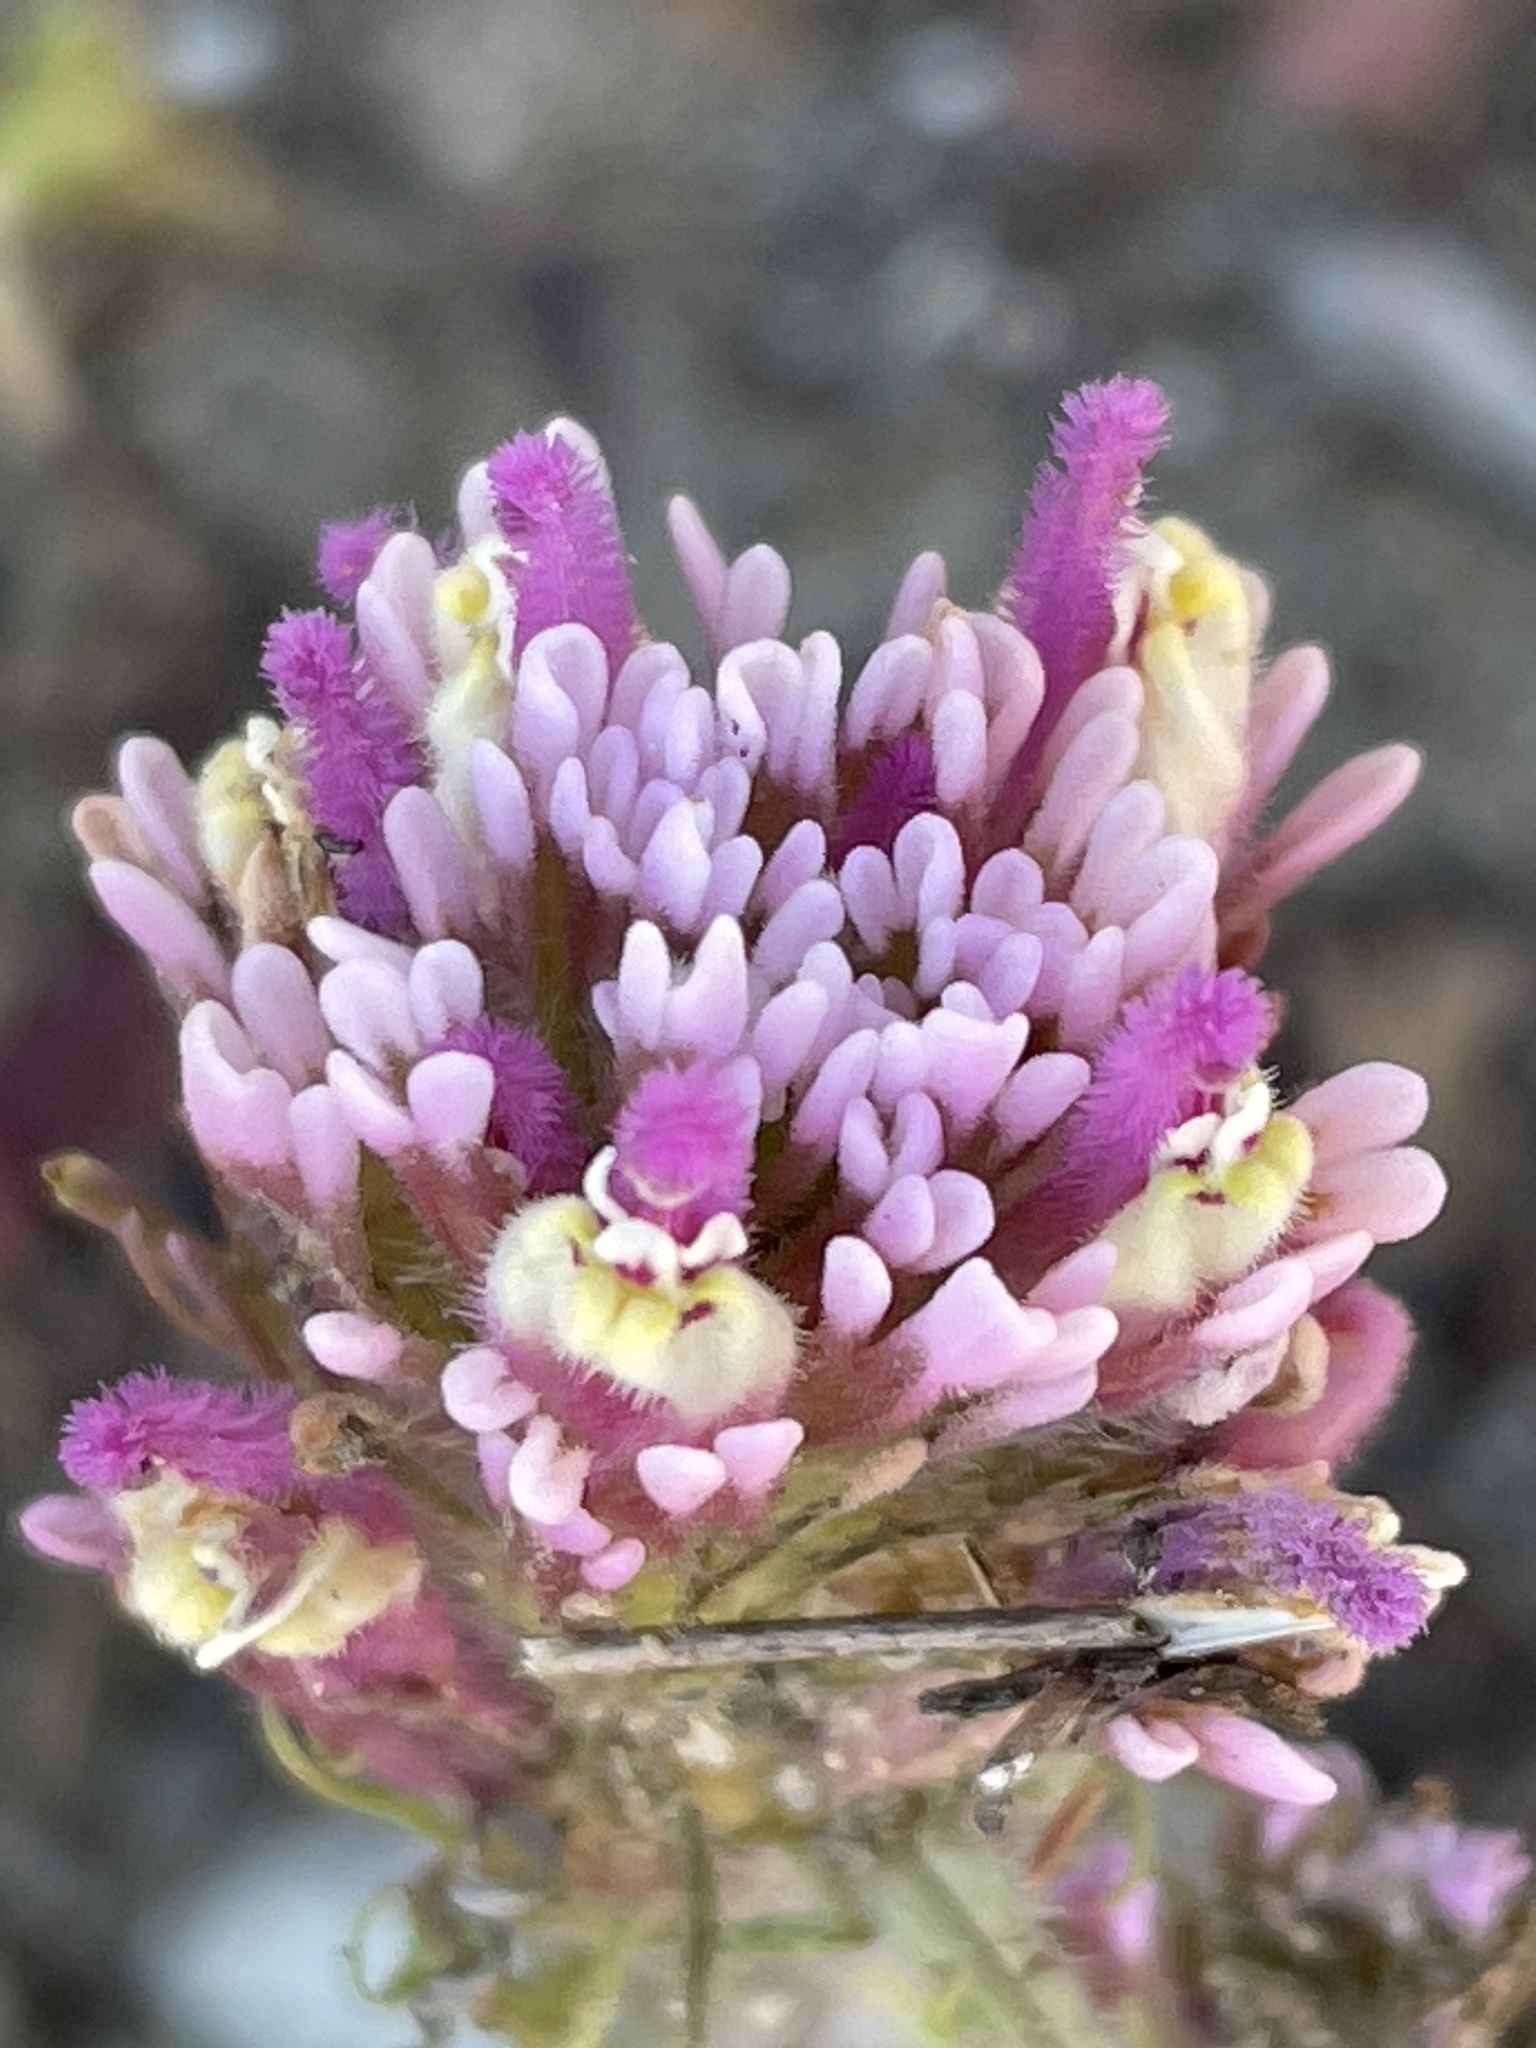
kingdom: Plantae
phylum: Tracheophyta
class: Magnoliopsida
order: Lamiales
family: Orobanchaceae
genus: Castilleja
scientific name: Castilleja exserta
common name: Purple owl-clover
